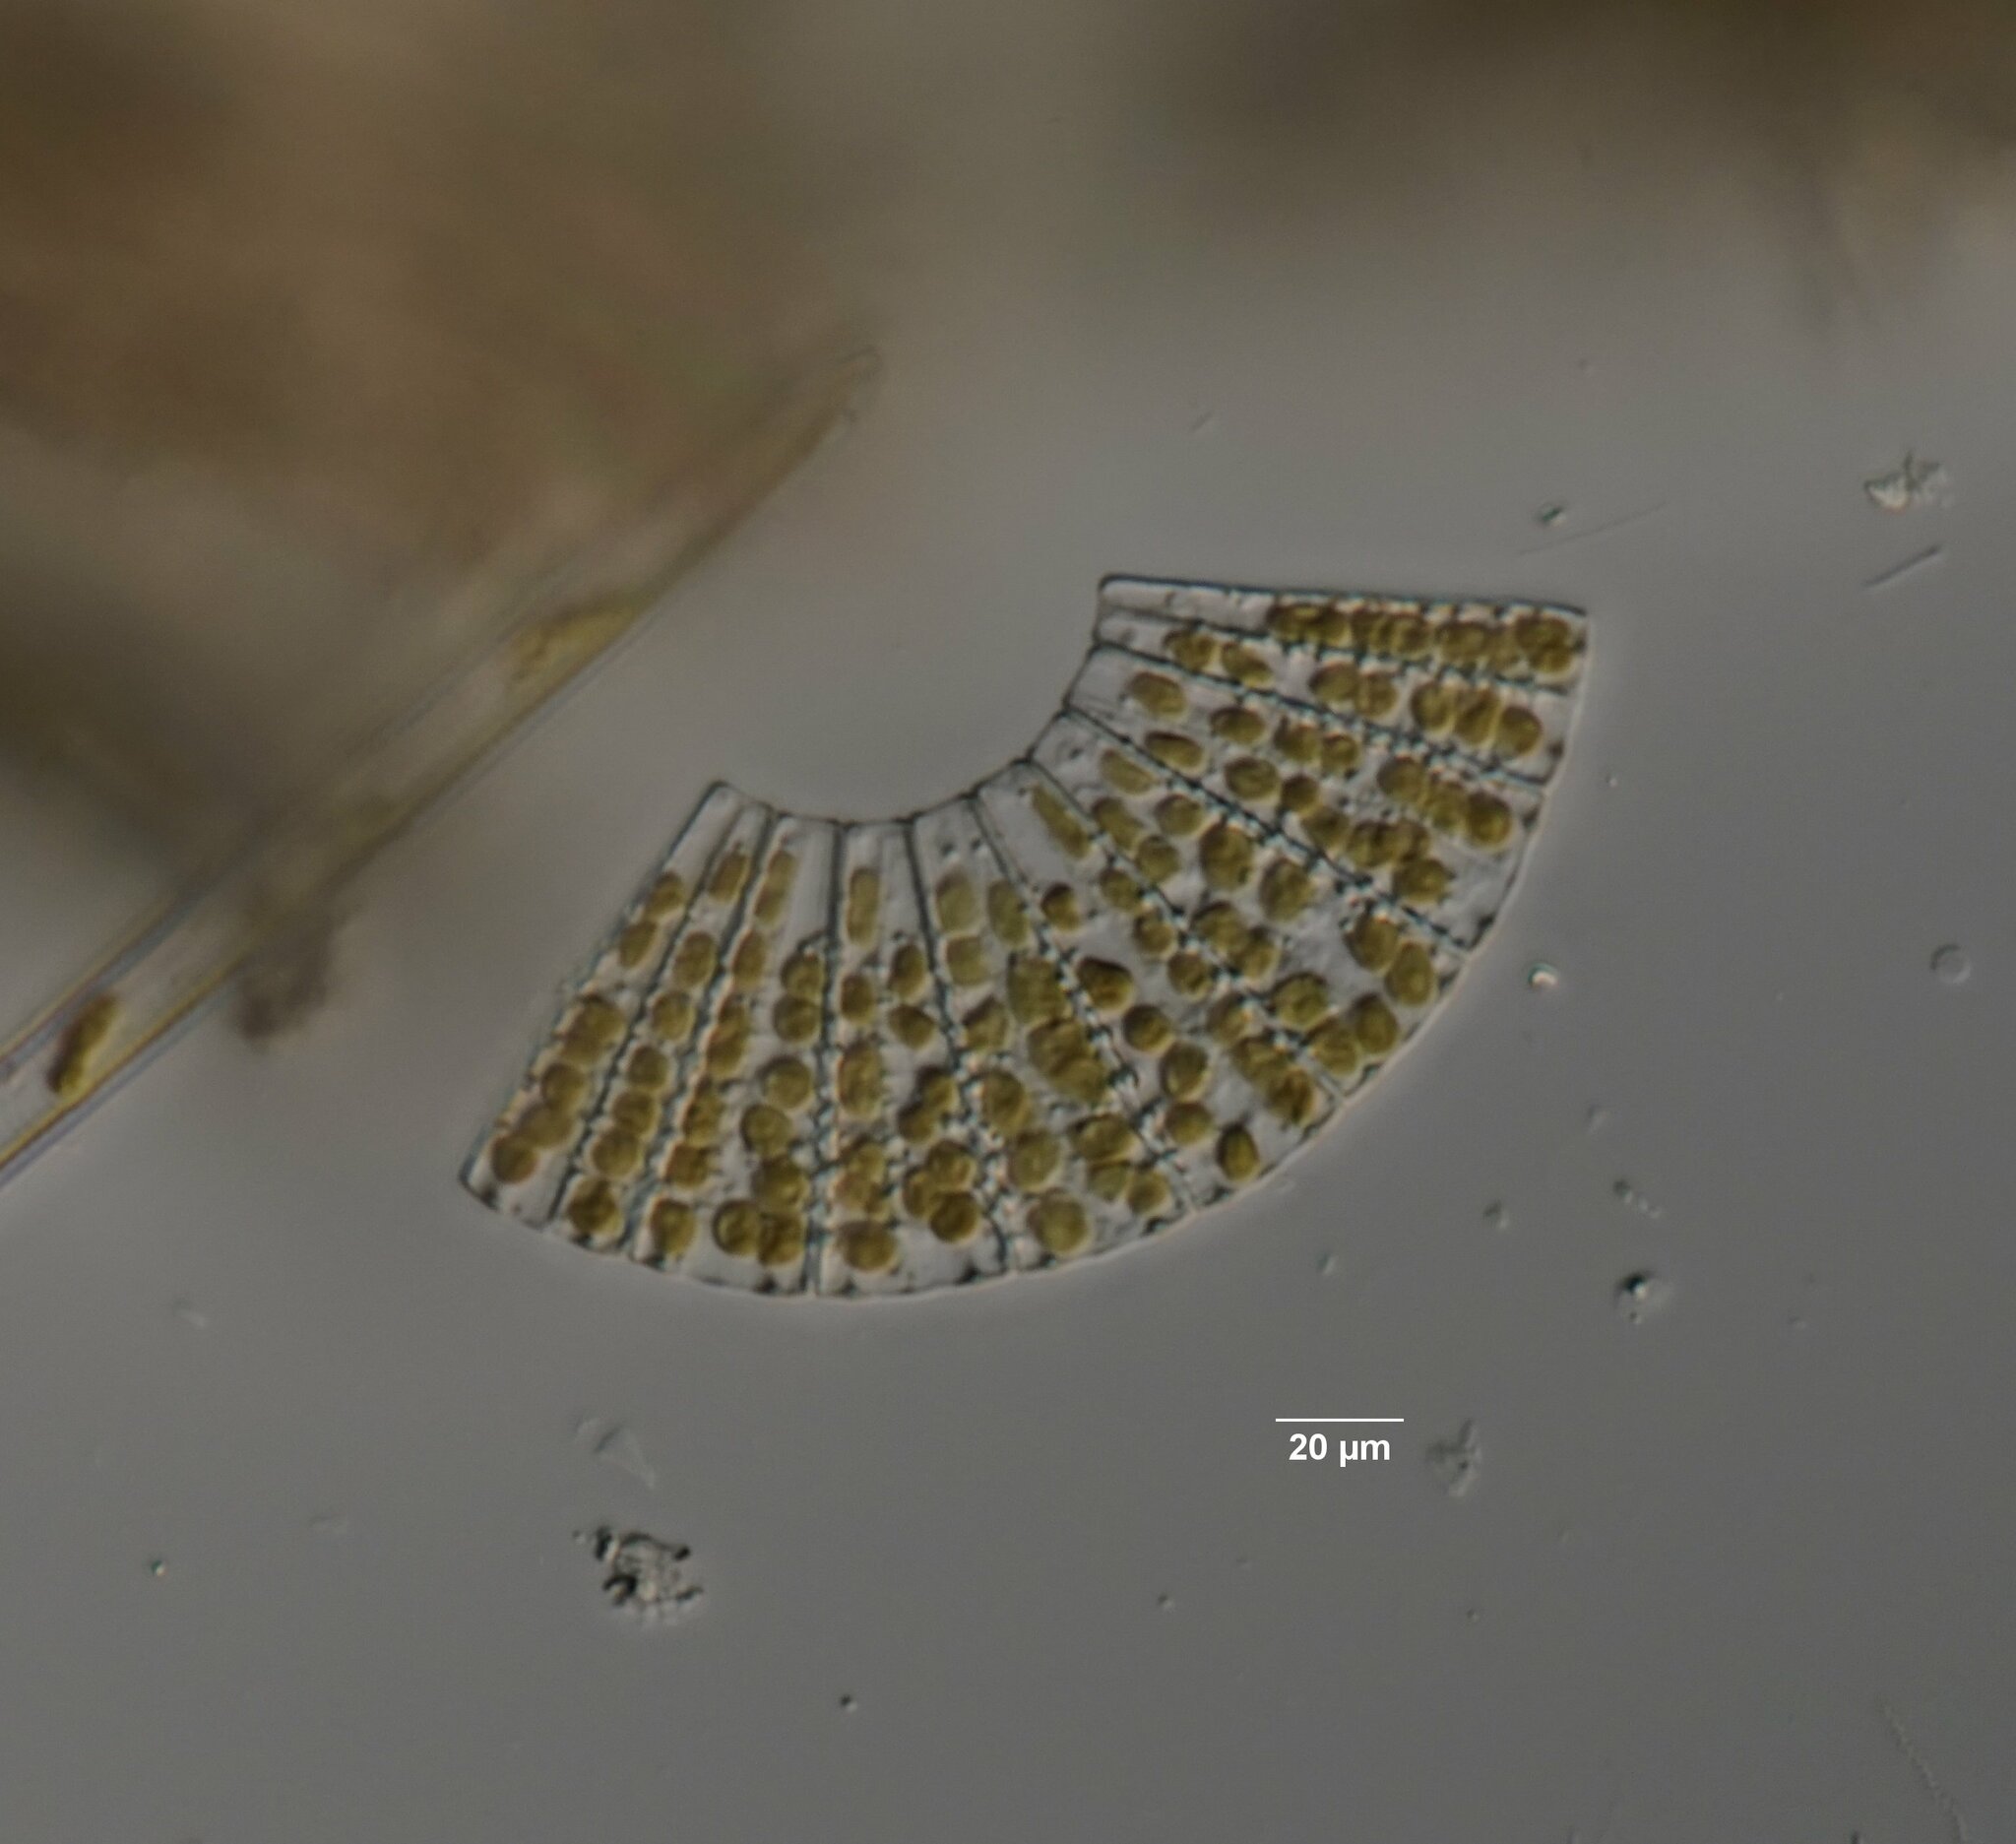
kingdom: Chromista
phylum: Ochrophyta
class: Bacillariophyceae
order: Fragilariales
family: Fragilariaceae
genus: Meridion
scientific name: Meridion circulare
